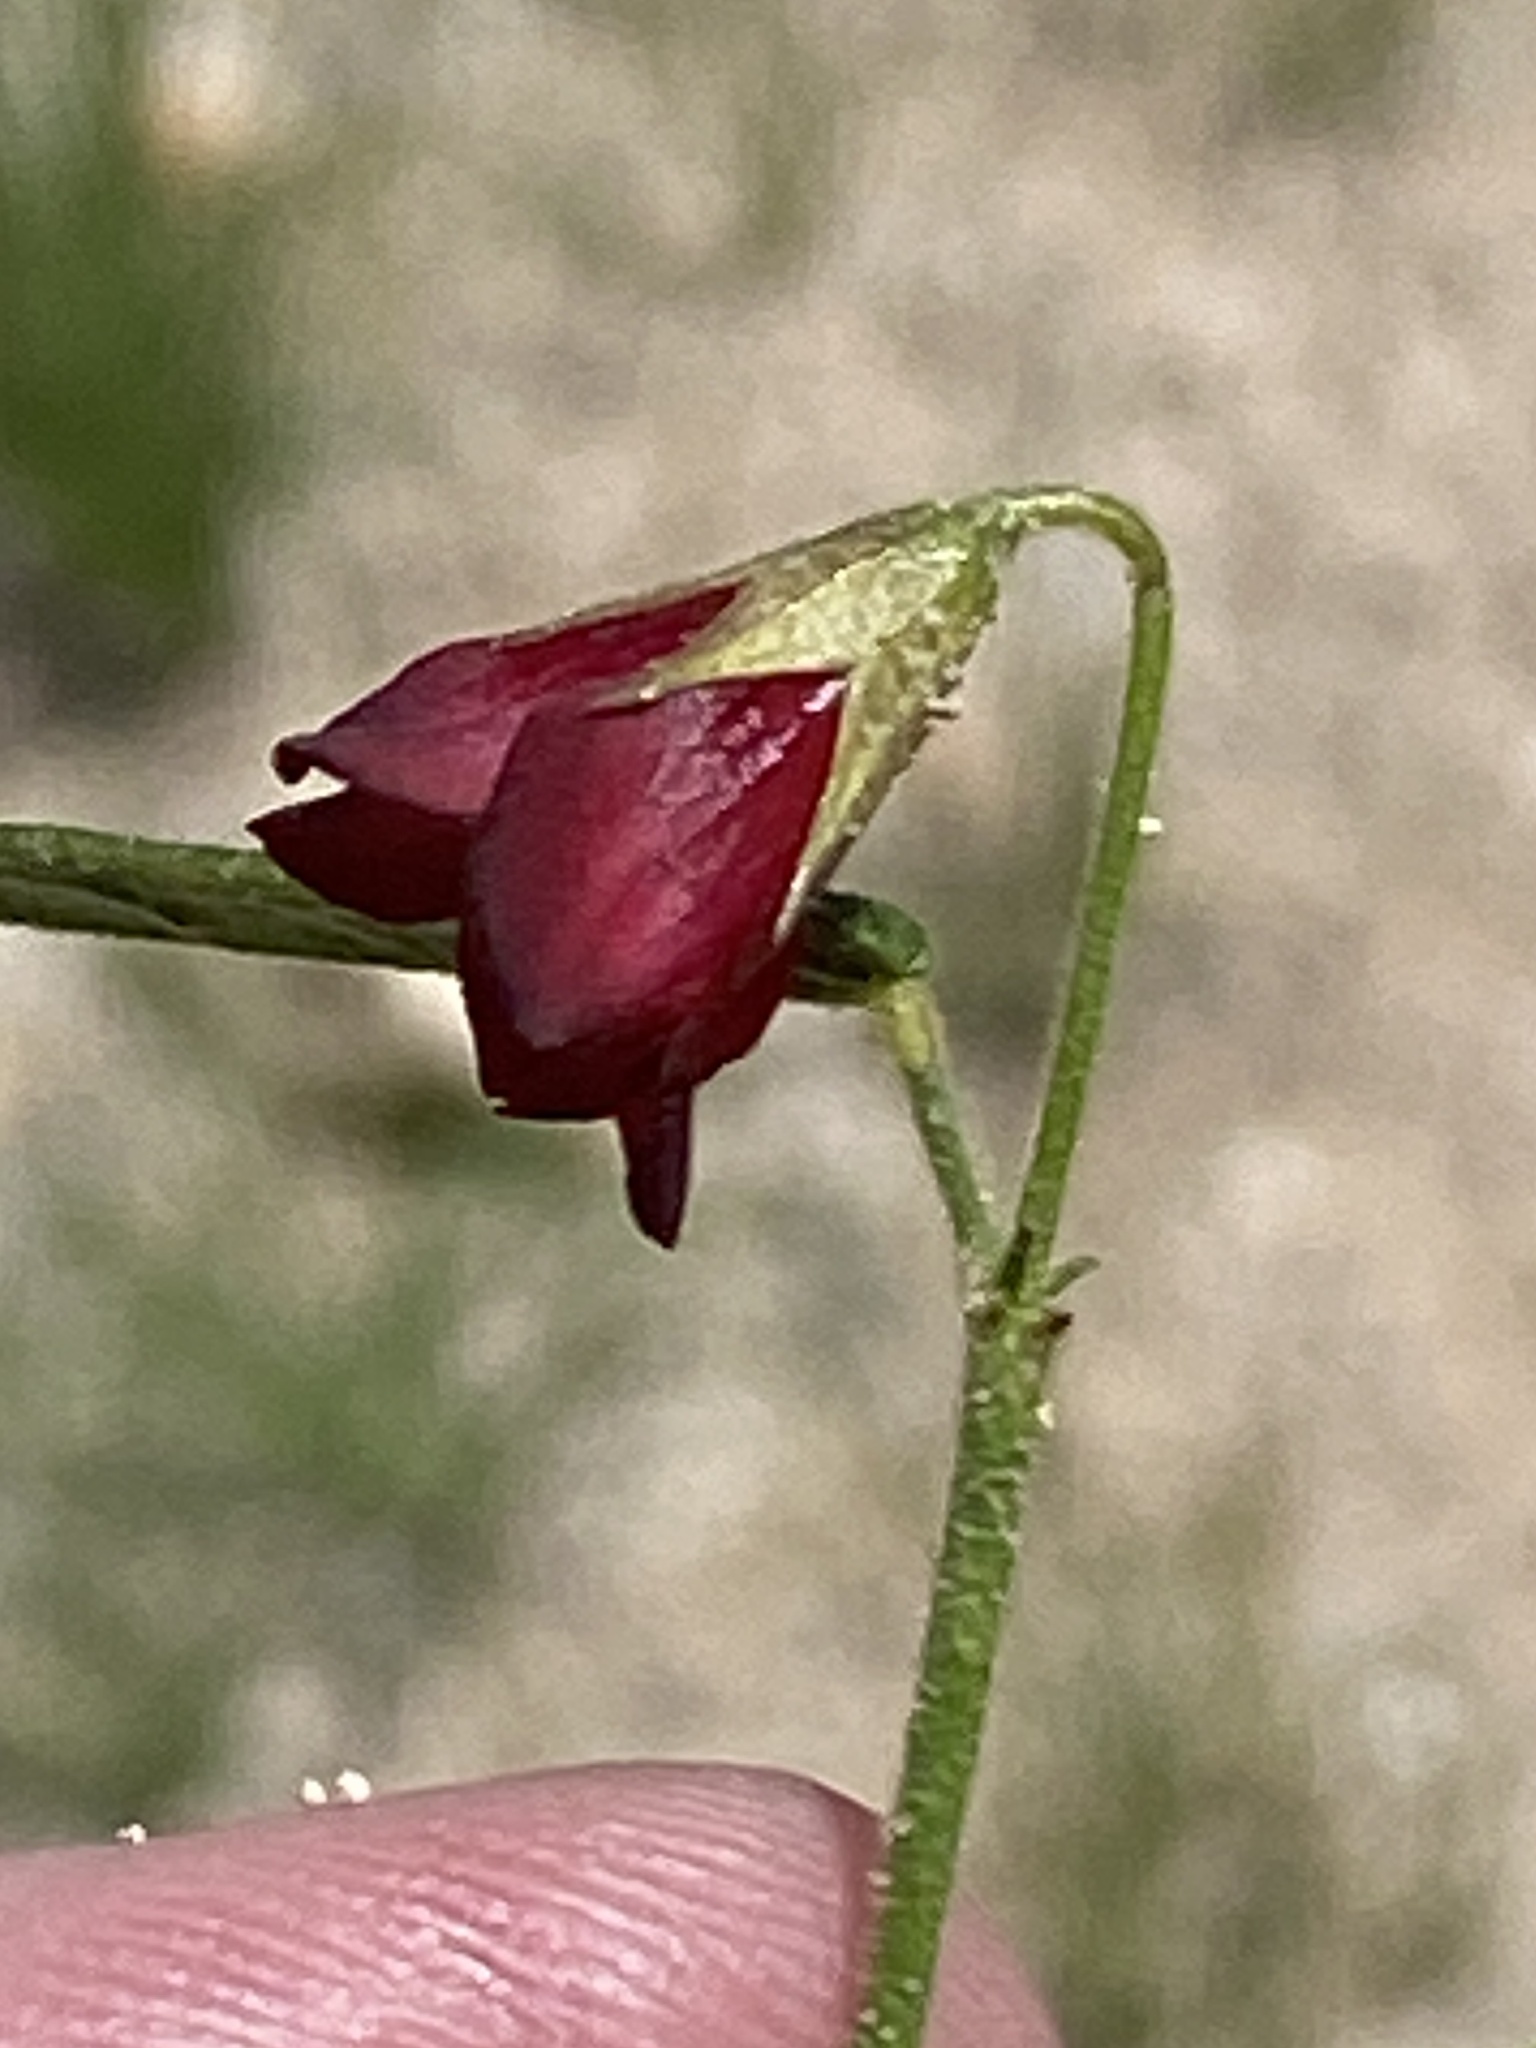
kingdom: Plantae
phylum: Tracheophyta
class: Magnoliopsida
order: Malvales
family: Malvaceae
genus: Hermannia
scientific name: Hermannia modesta
